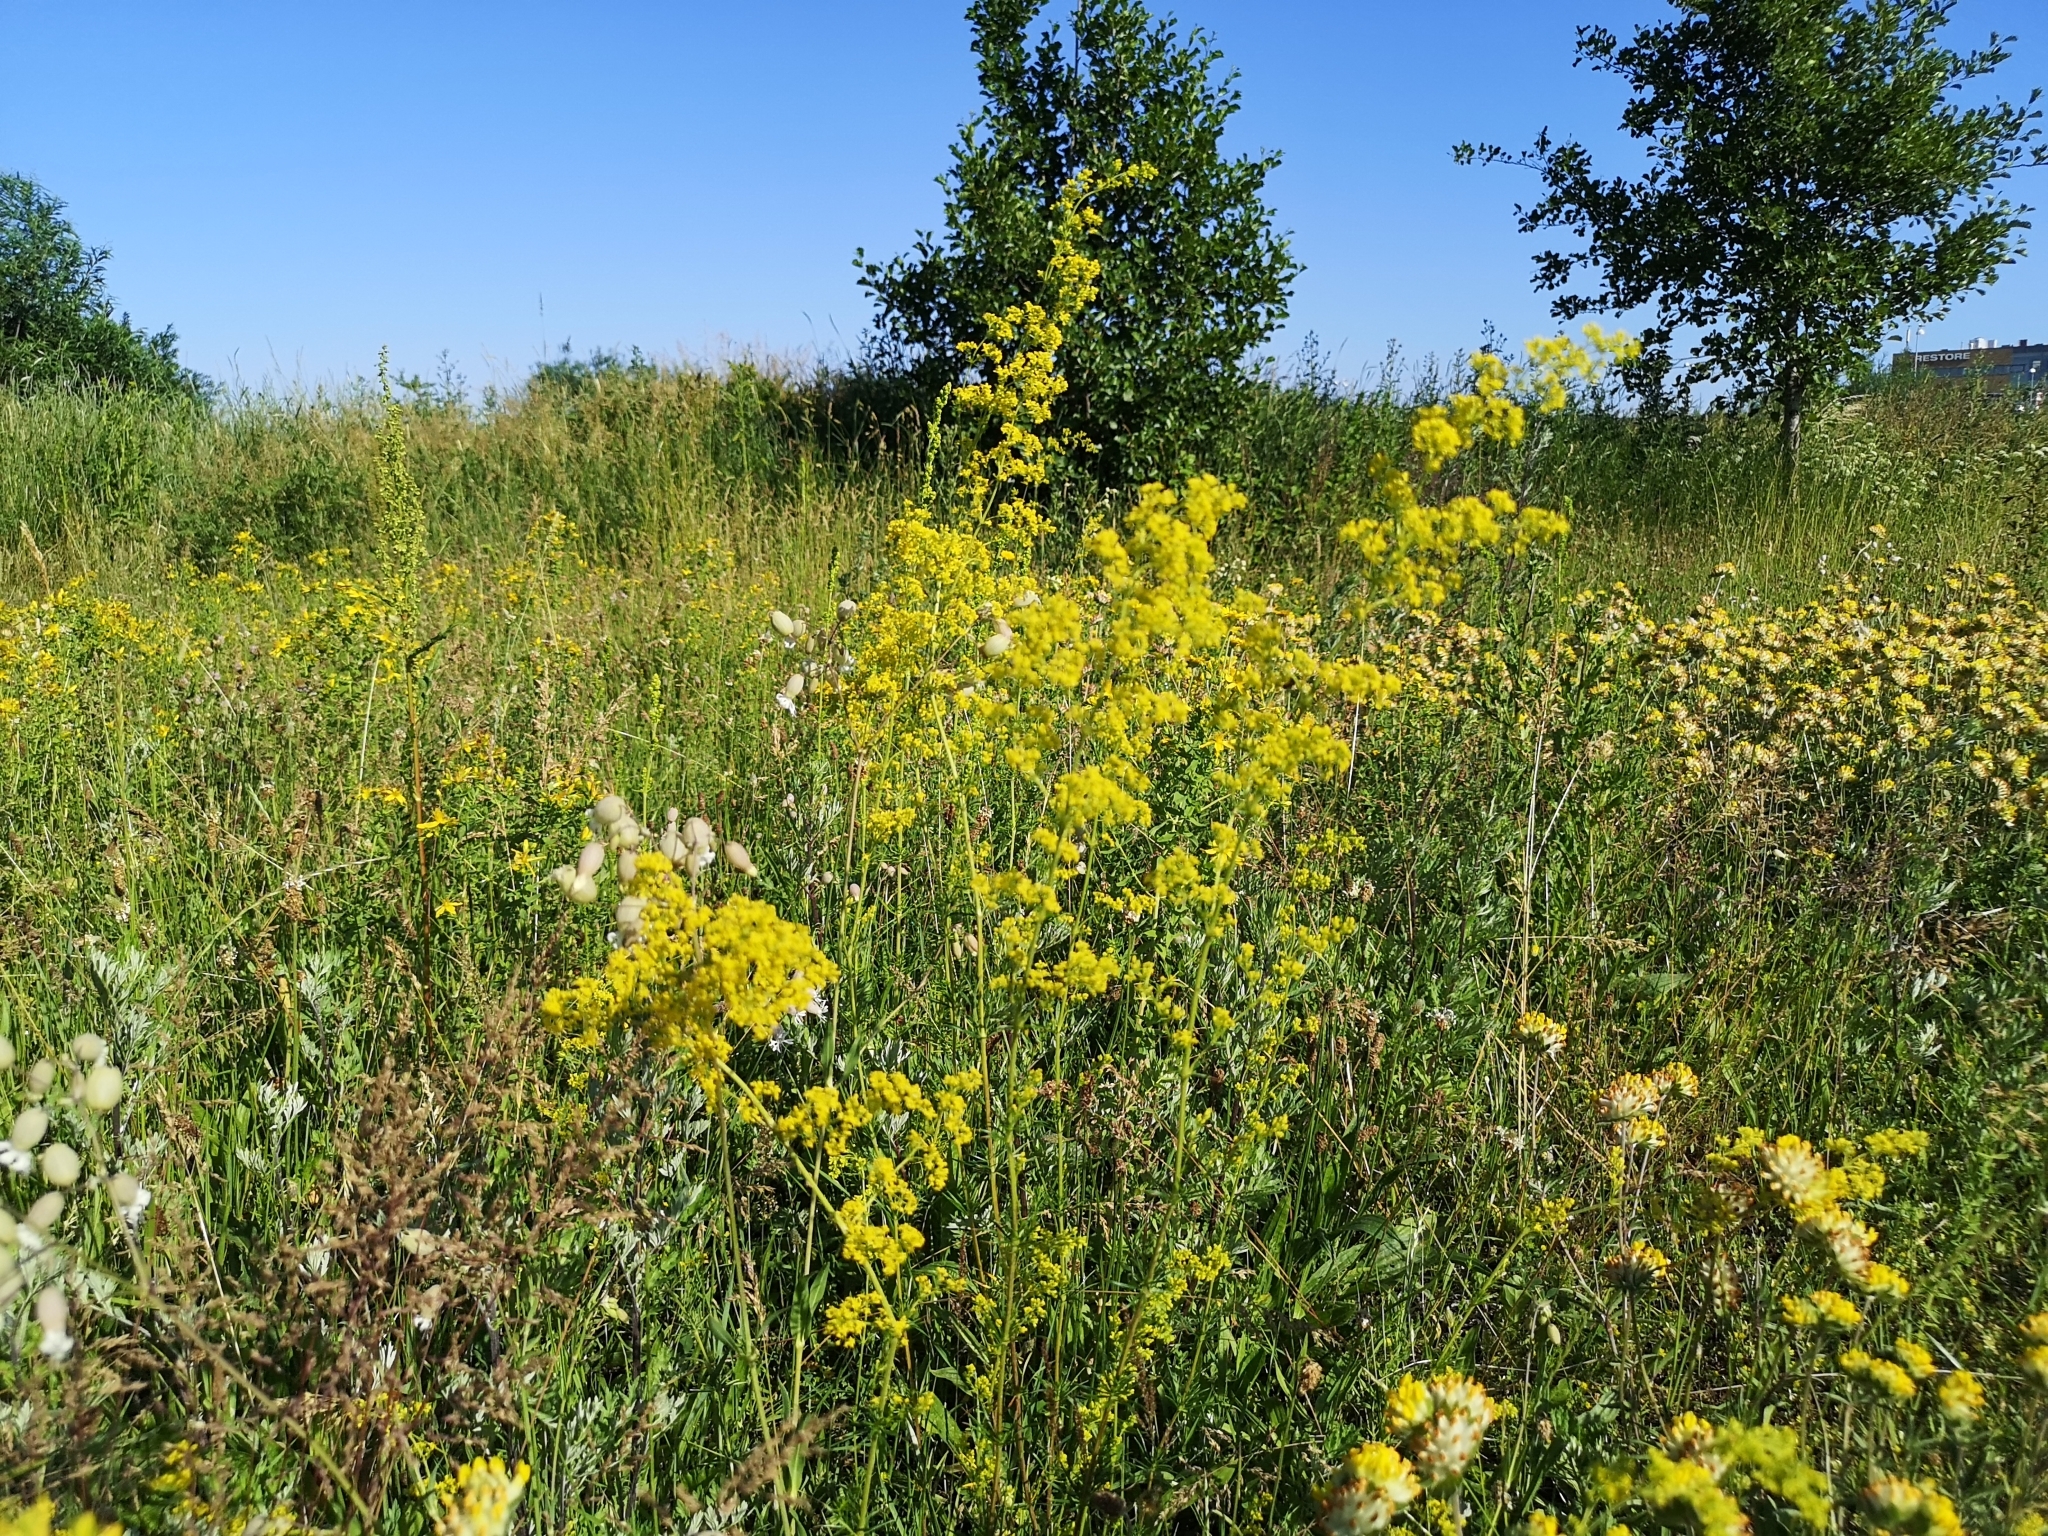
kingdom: Plantae
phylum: Tracheophyta
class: Magnoliopsida
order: Gentianales
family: Rubiaceae
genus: Galium
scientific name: Galium verum
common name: Lady's bedstraw
